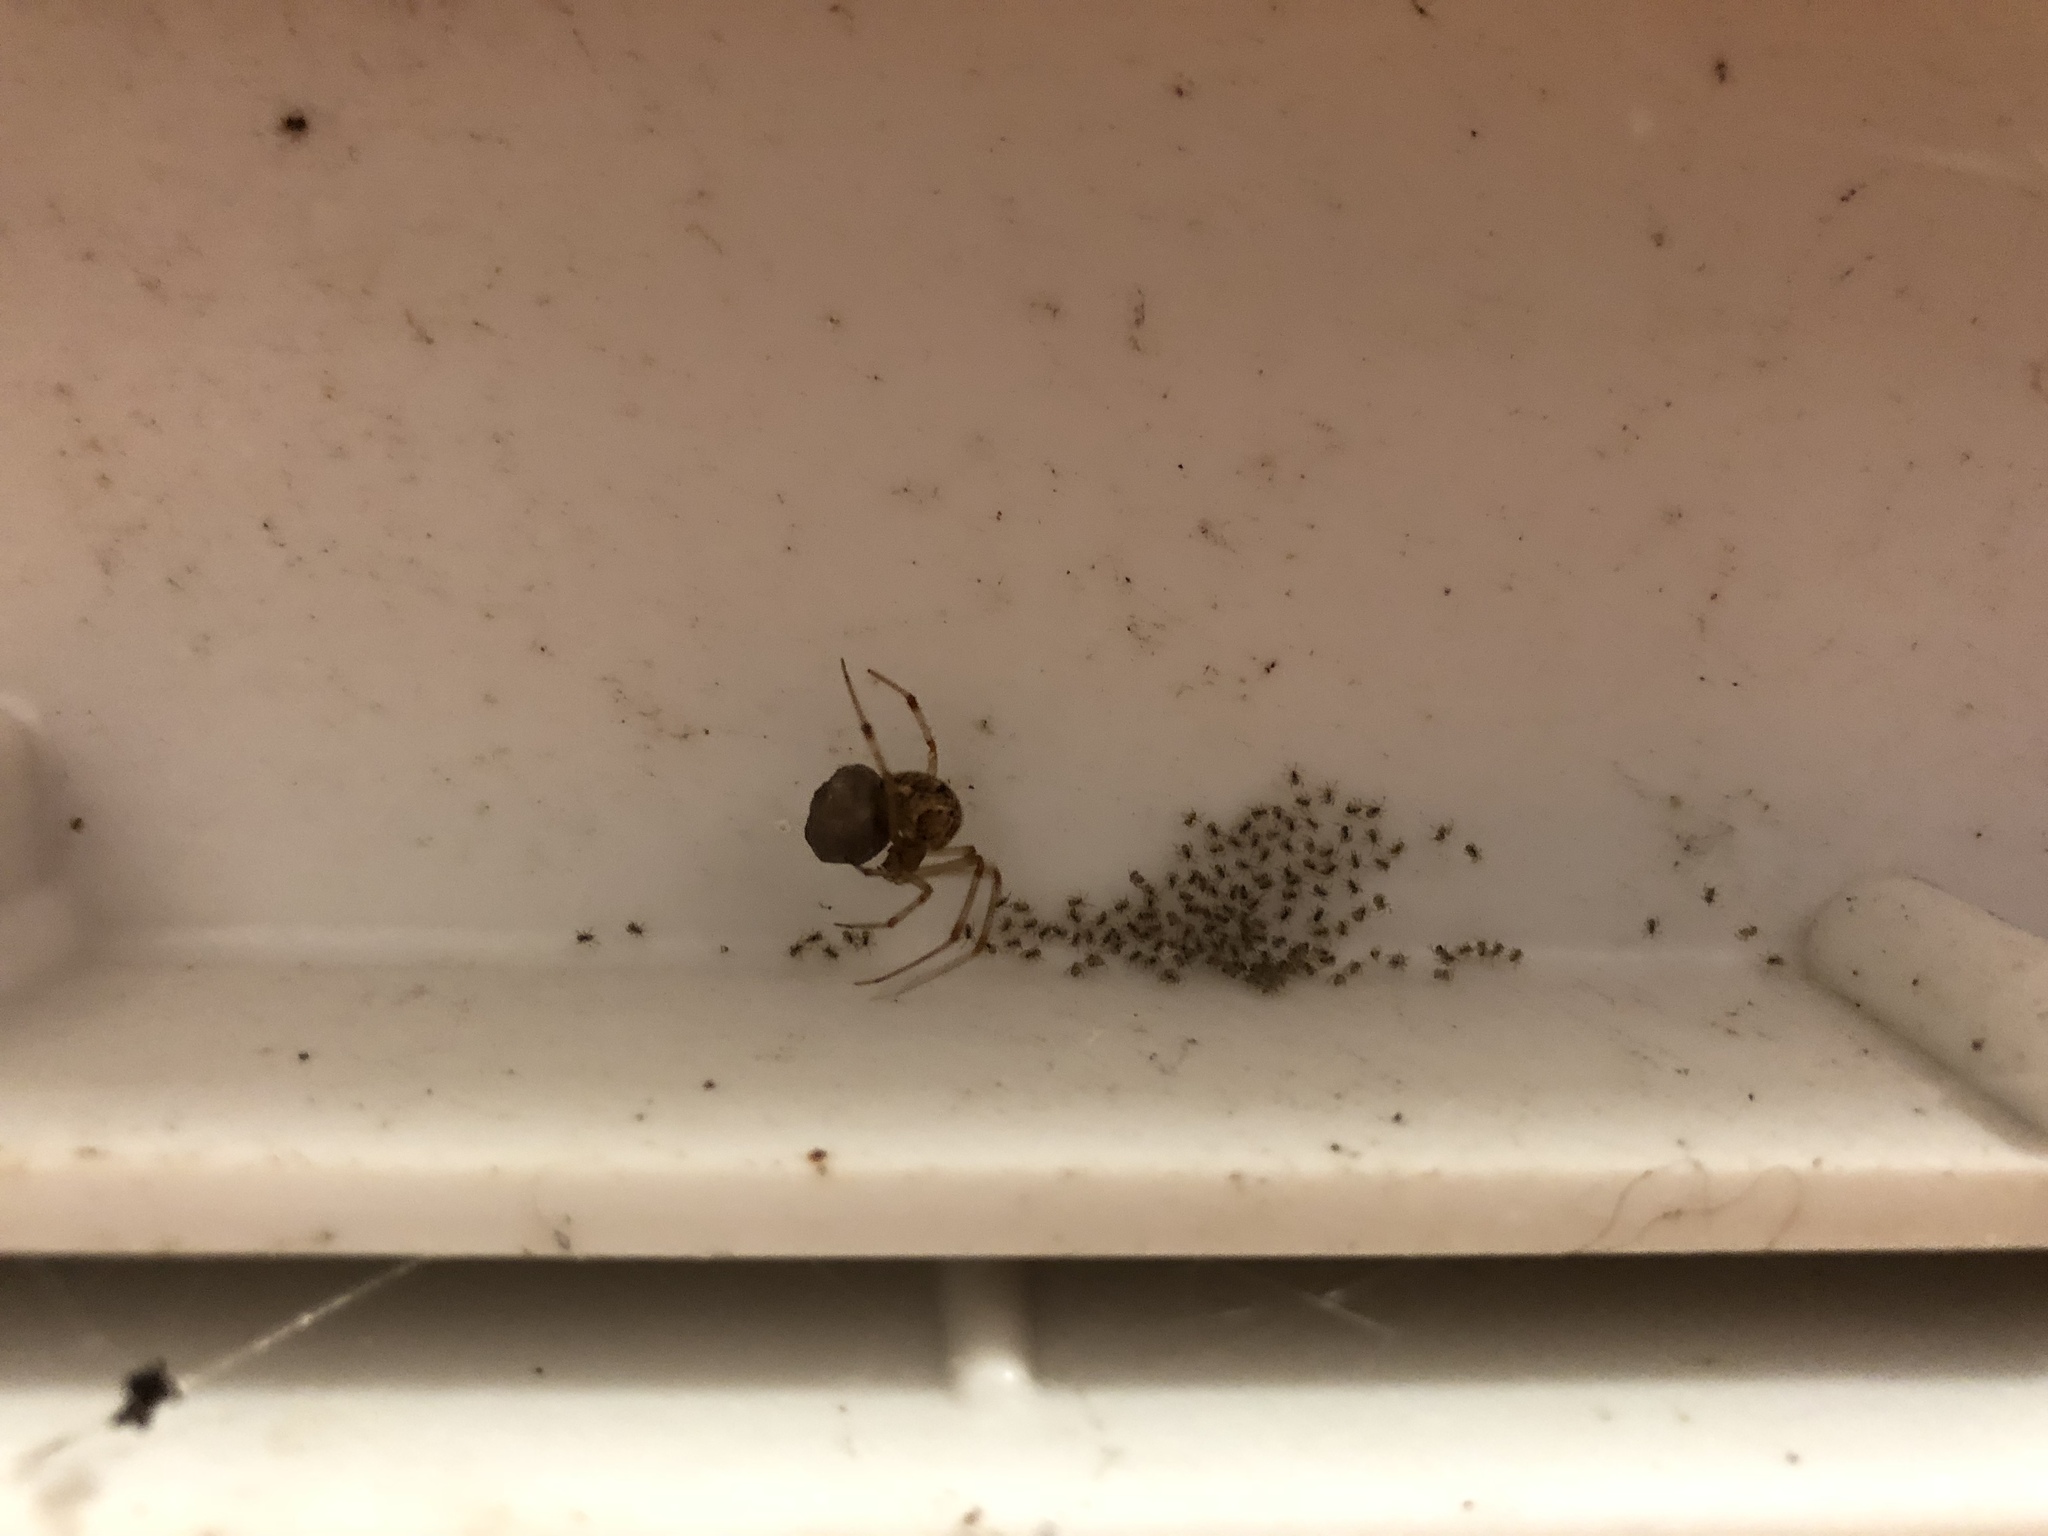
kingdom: Animalia
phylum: Arthropoda
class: Arachnida
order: Araneae
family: Theridiidae
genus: Parasteatoda
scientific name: Parasteatoda tepidariorum
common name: Common house spider
